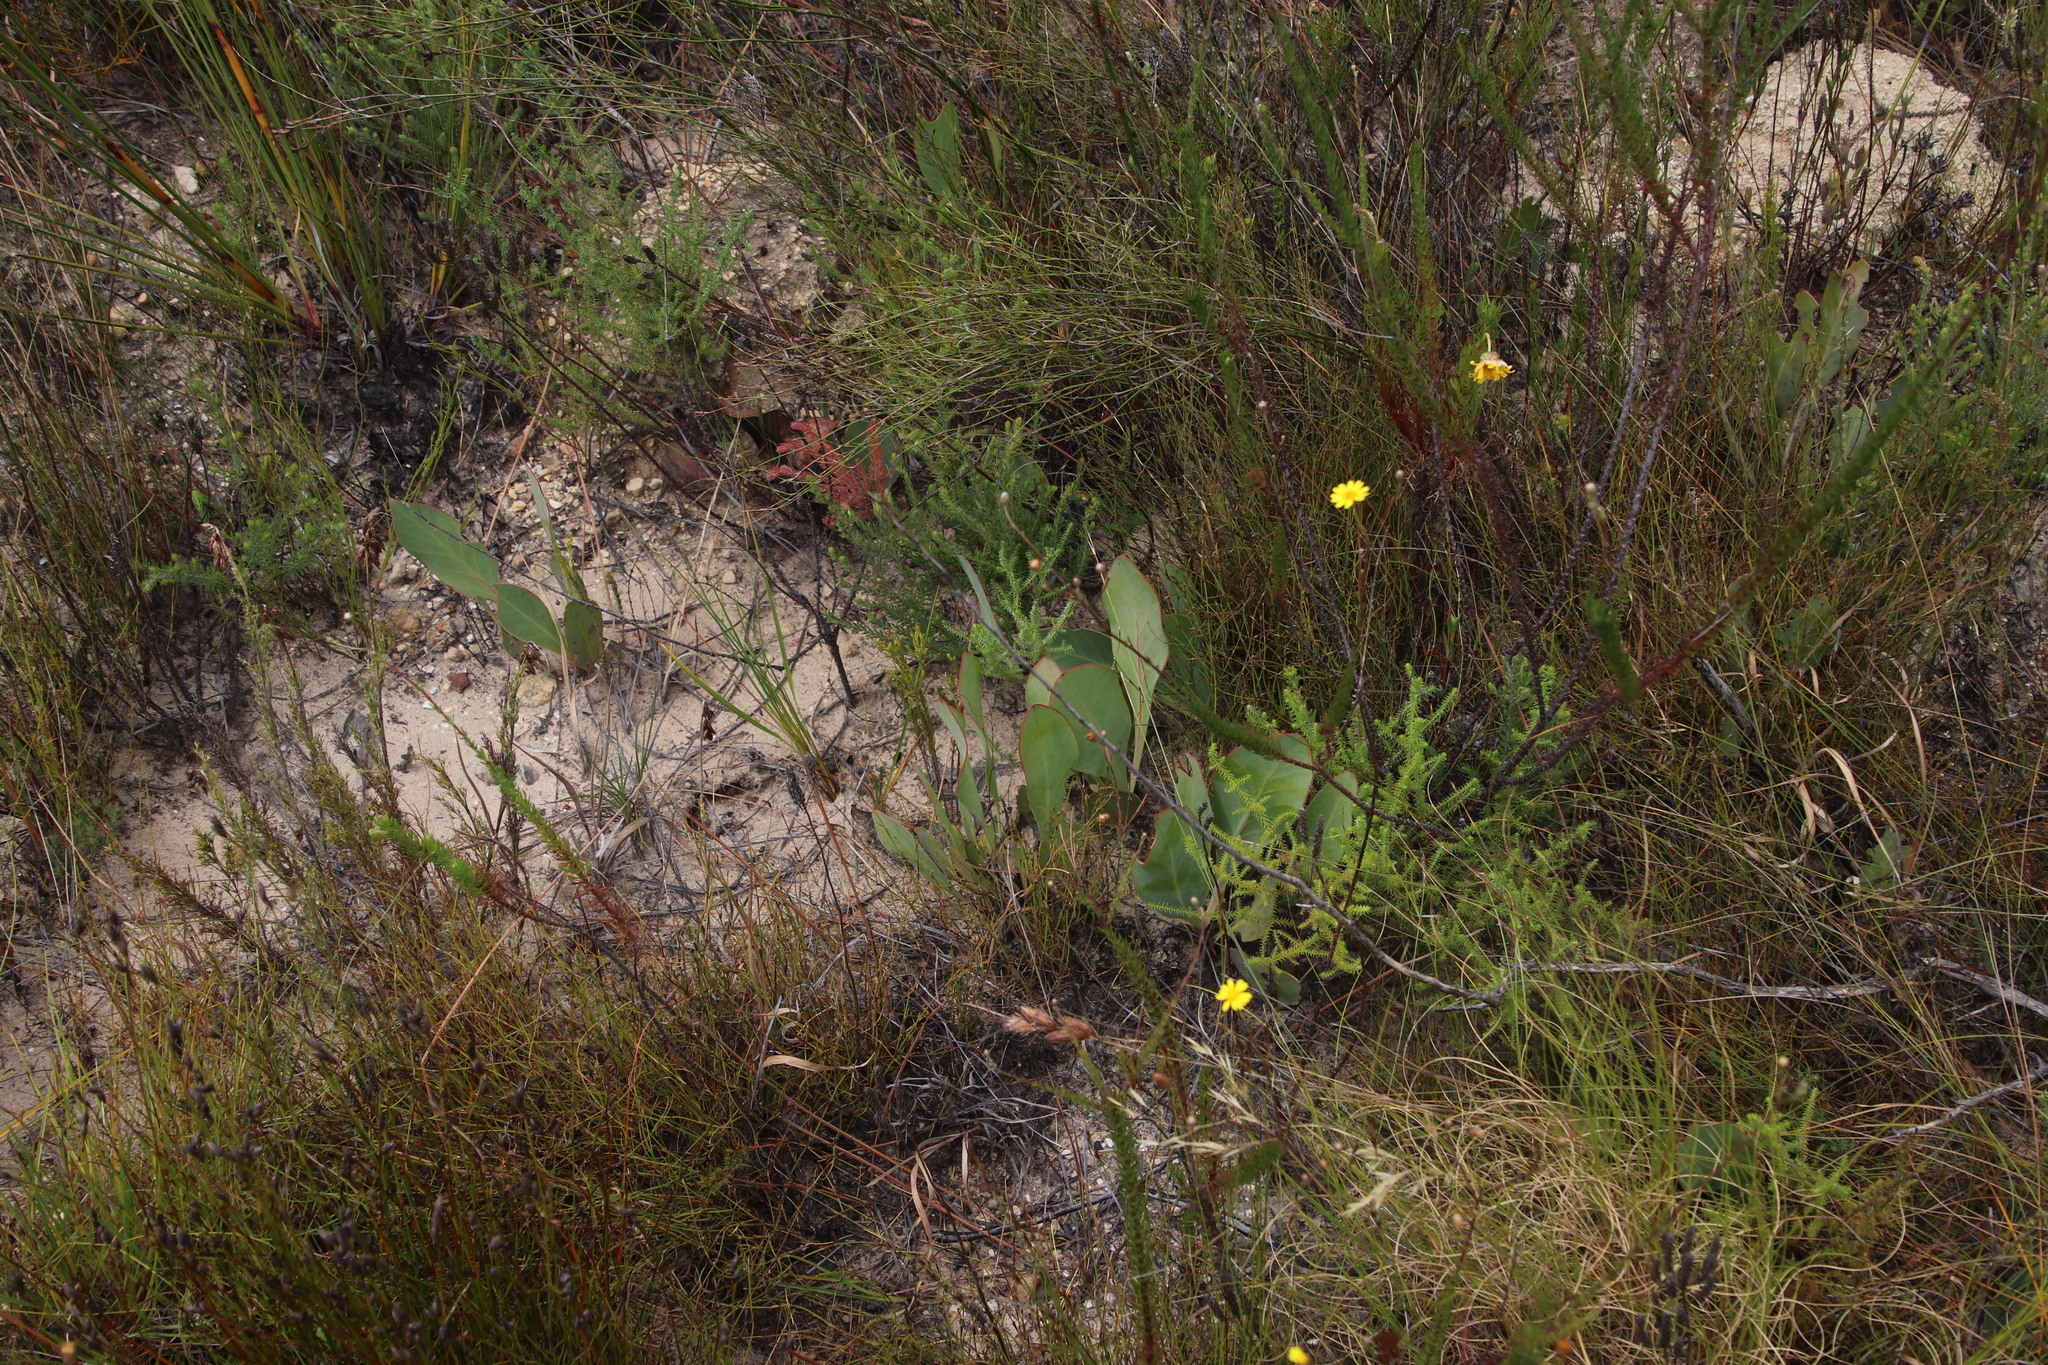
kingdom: Plantae
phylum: Tracheophyta
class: Magnoliopsida
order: Proteales
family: Proteaceae
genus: Protea
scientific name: Protea acaulos
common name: Common ground sugarbush
